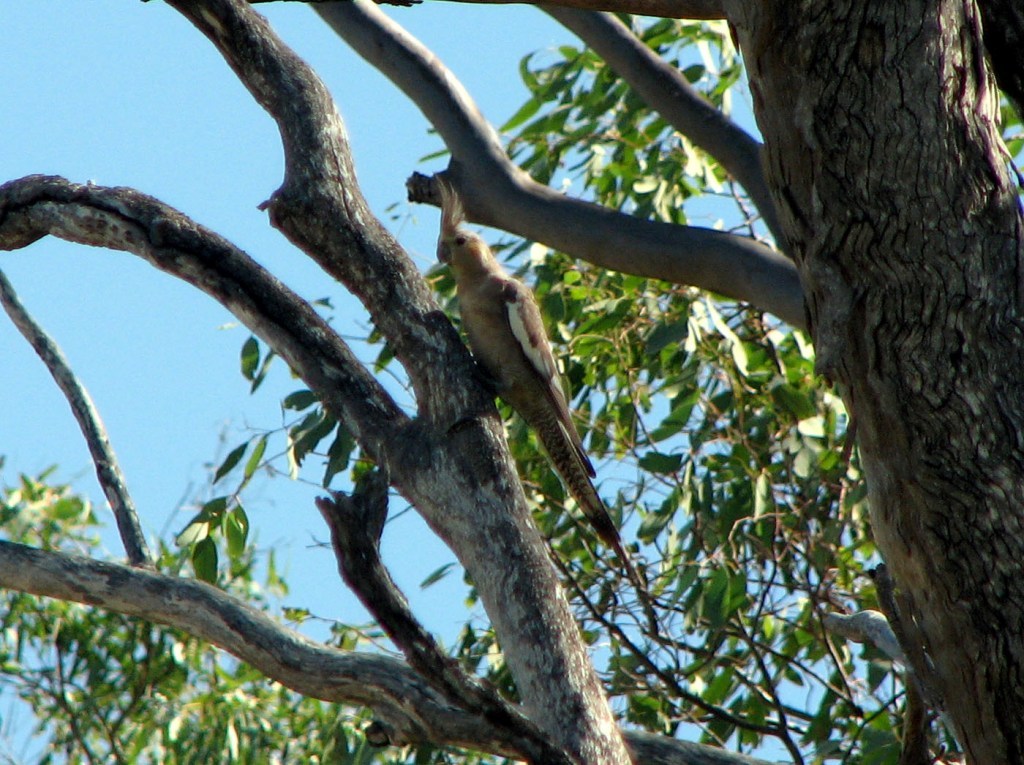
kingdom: Animalia
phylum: Chordata
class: Aves
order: Psittaciformes
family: Psittacidae
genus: Nymphicus
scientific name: Nymphicus hollandicus
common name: Cockatiel
